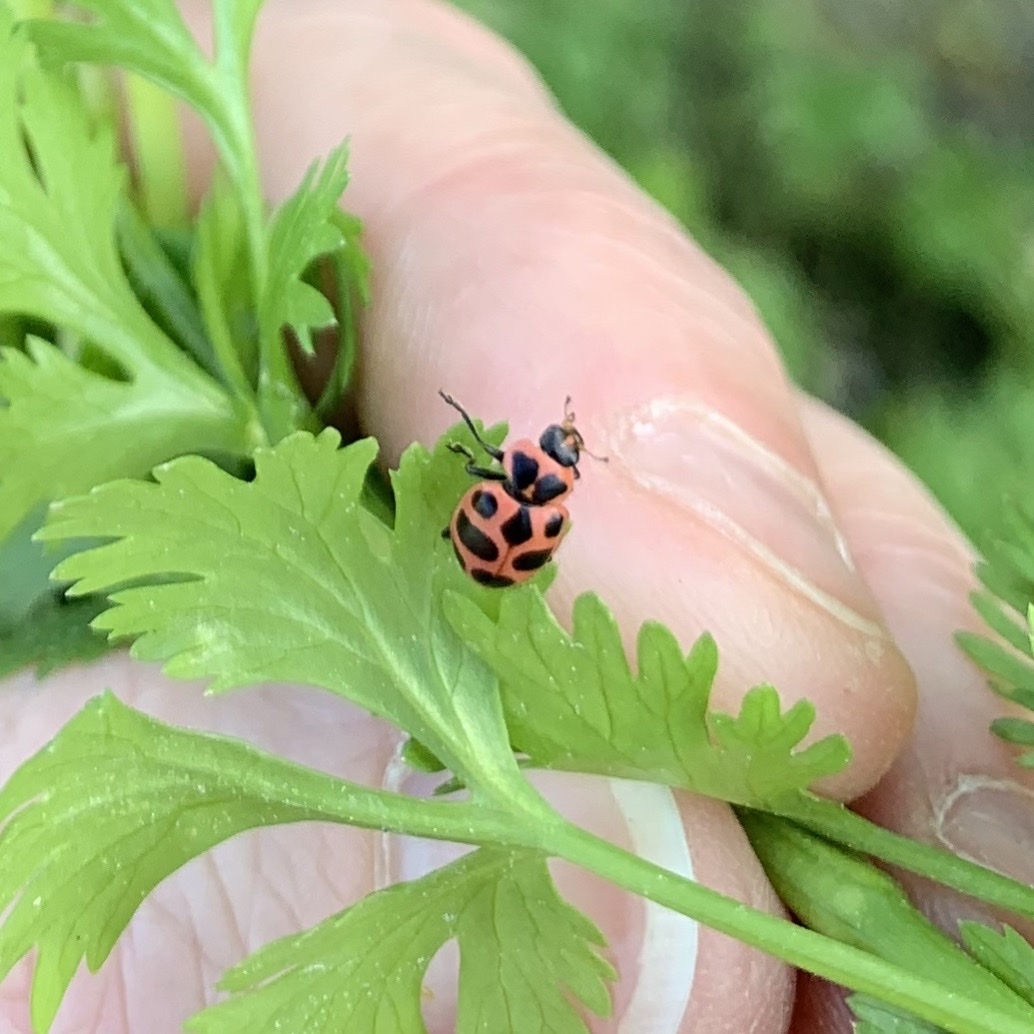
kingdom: Animalia
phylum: Arthropoda
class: Insecta
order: Coleoptera
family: Coccinellidae
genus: Coleomegilla
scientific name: Coleomegilla maculata
